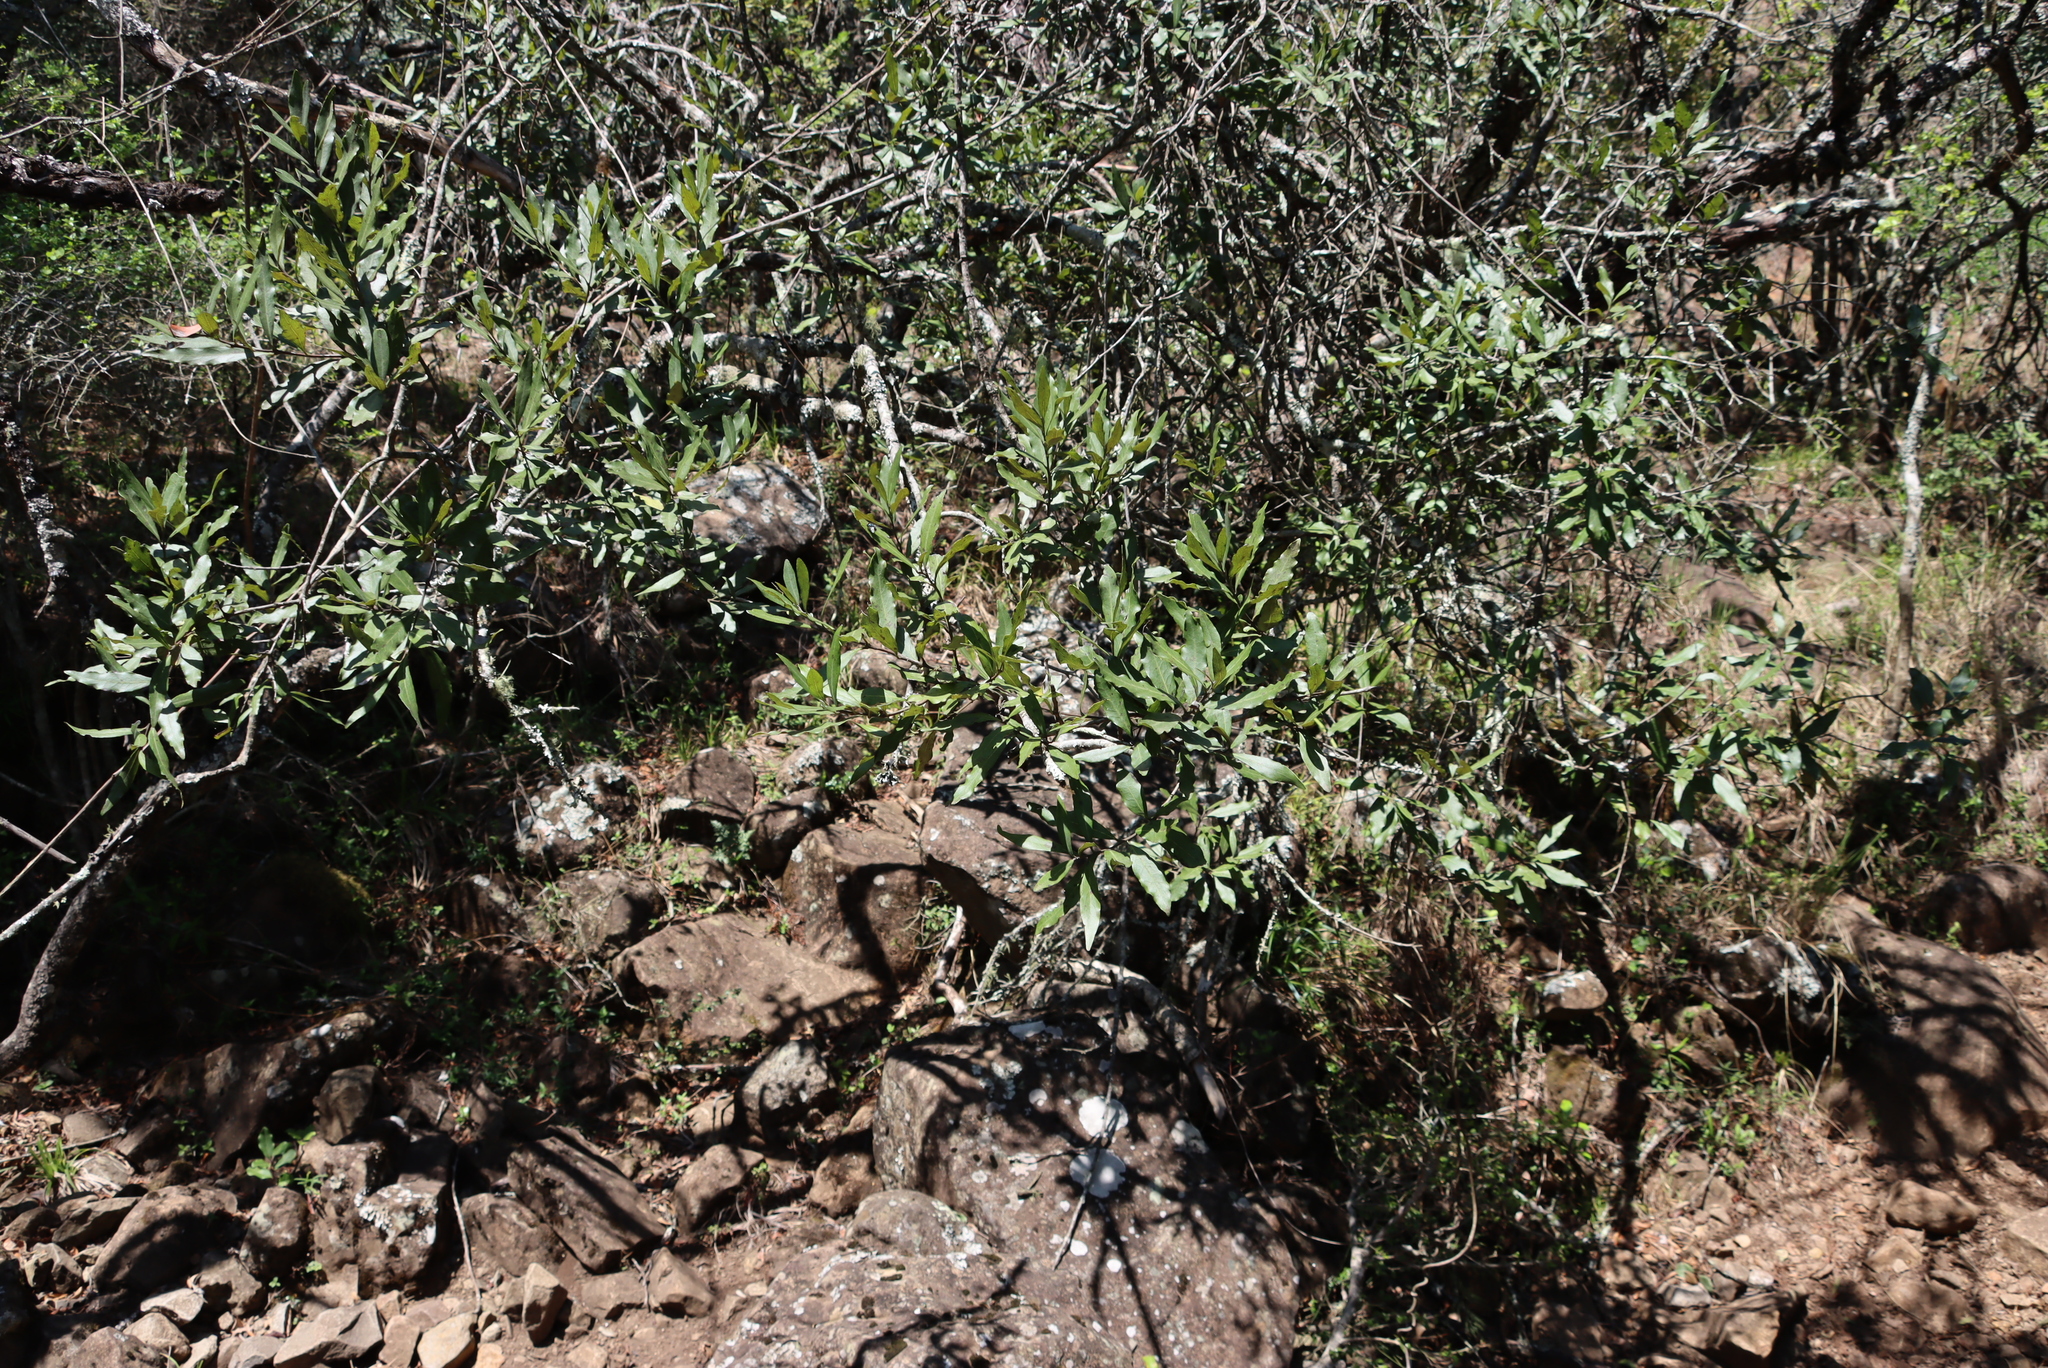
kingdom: Plantae
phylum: Tracheophyta
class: Magnoliopsida
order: Ericales
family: Ebenaceae
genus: Euclea
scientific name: Euclea natalensis
